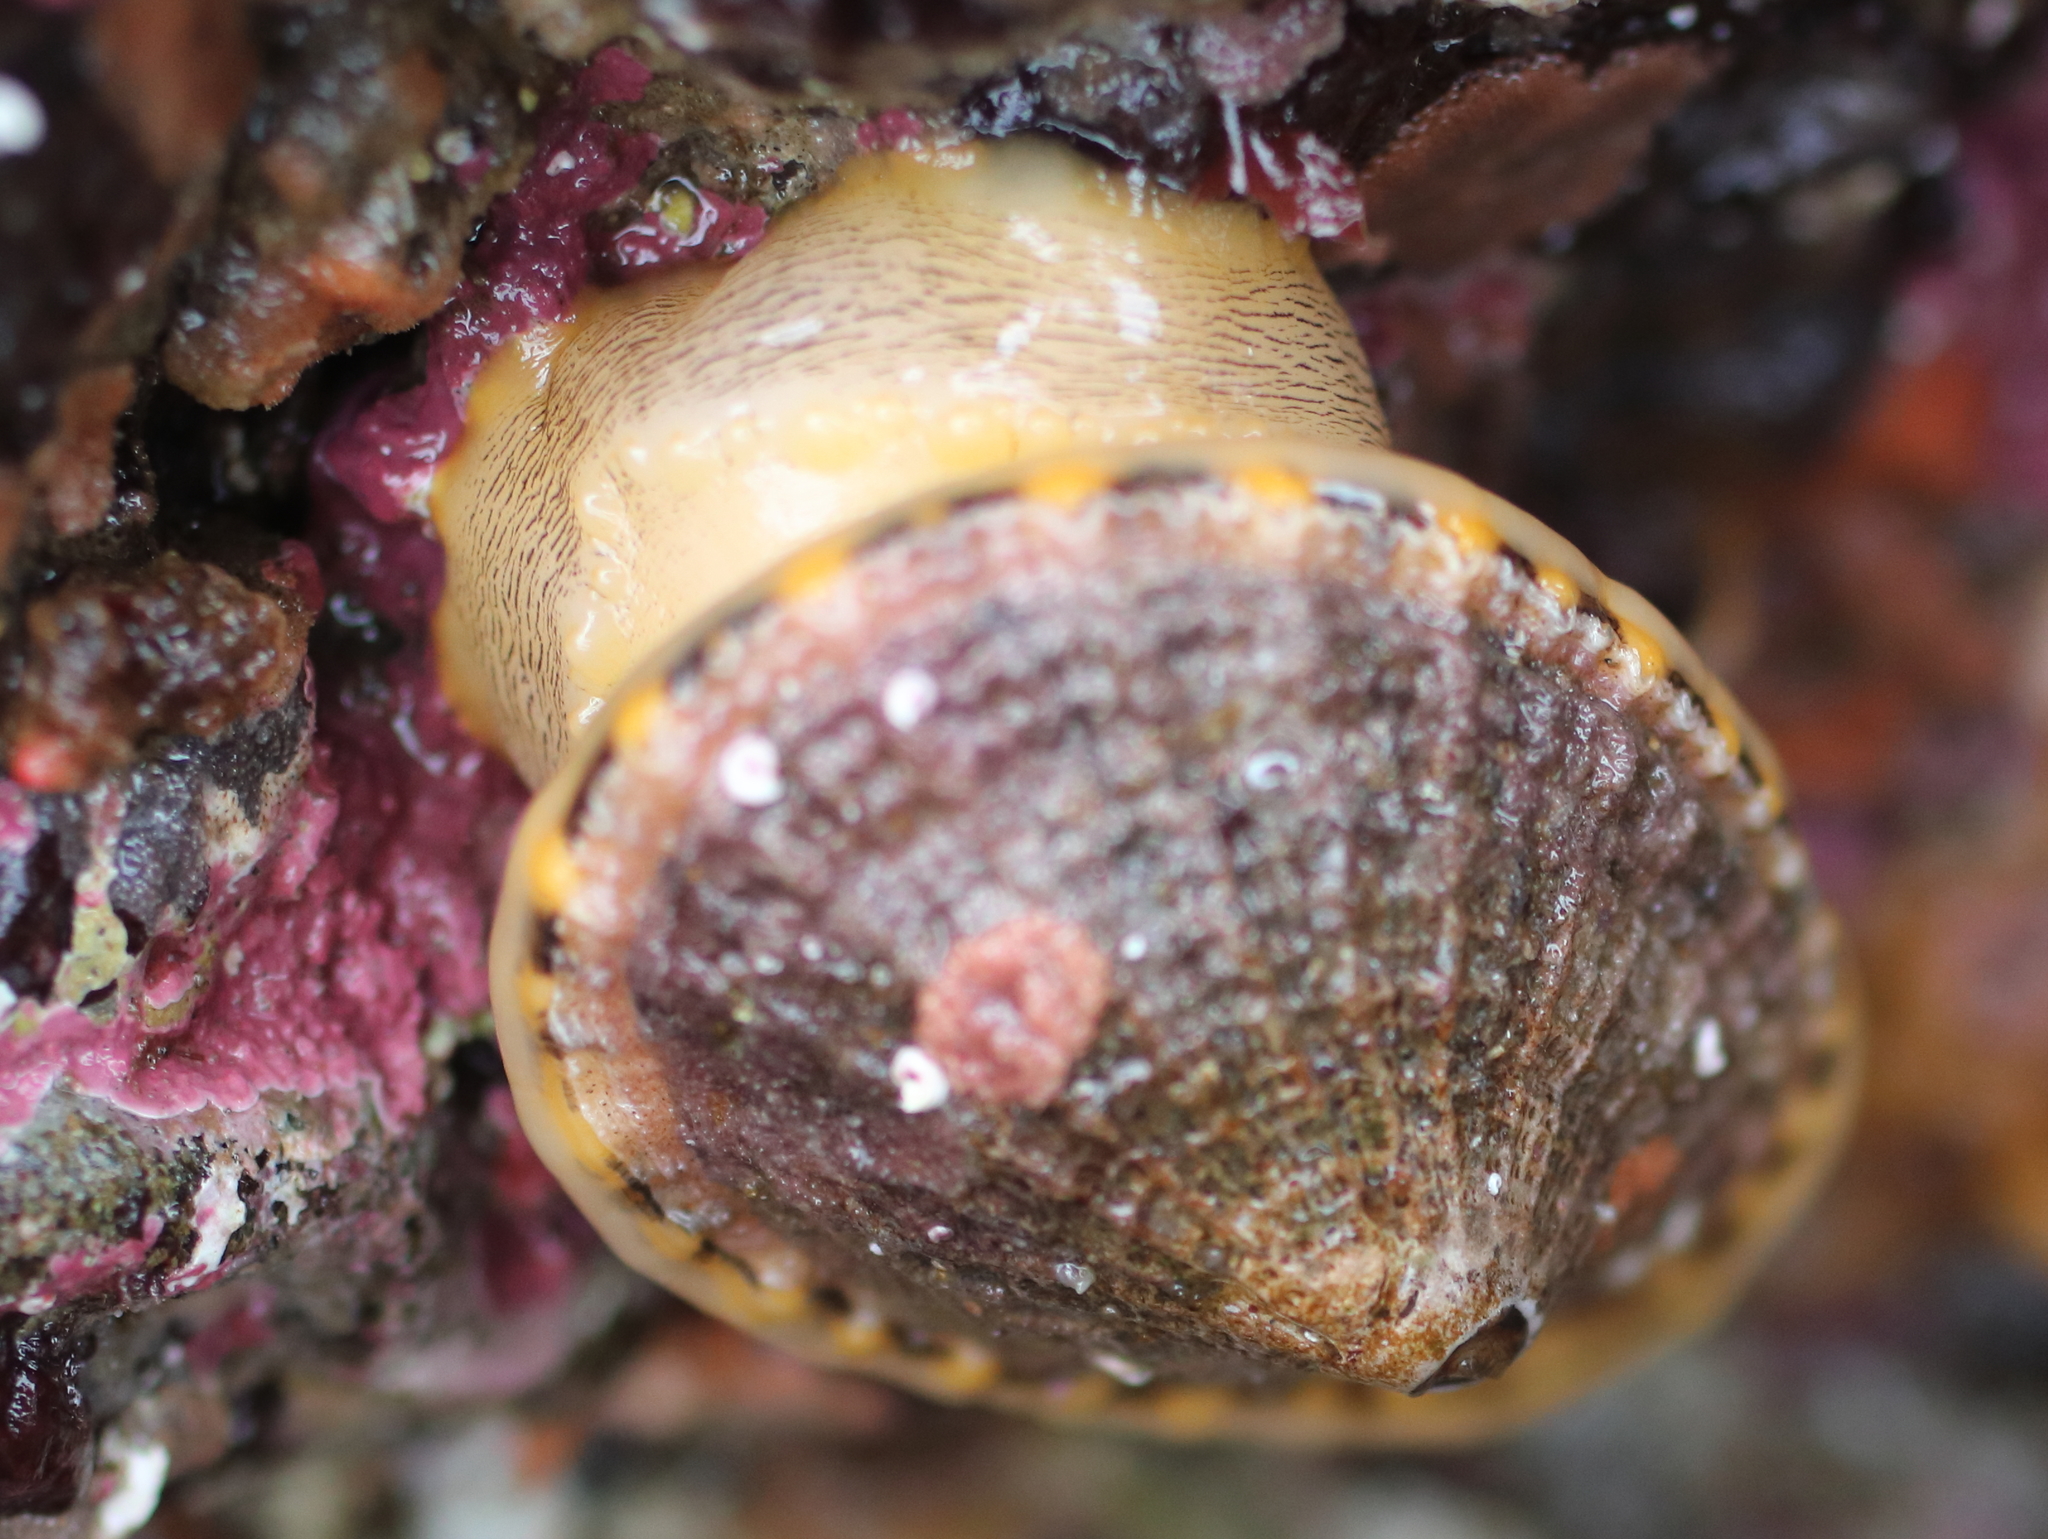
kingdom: Animalia
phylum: Mollusca
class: Gastropoda
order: Lepetellida
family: Fissurellidae
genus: Diodora
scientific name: Diodora aspera
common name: Rough keyhole limpet
